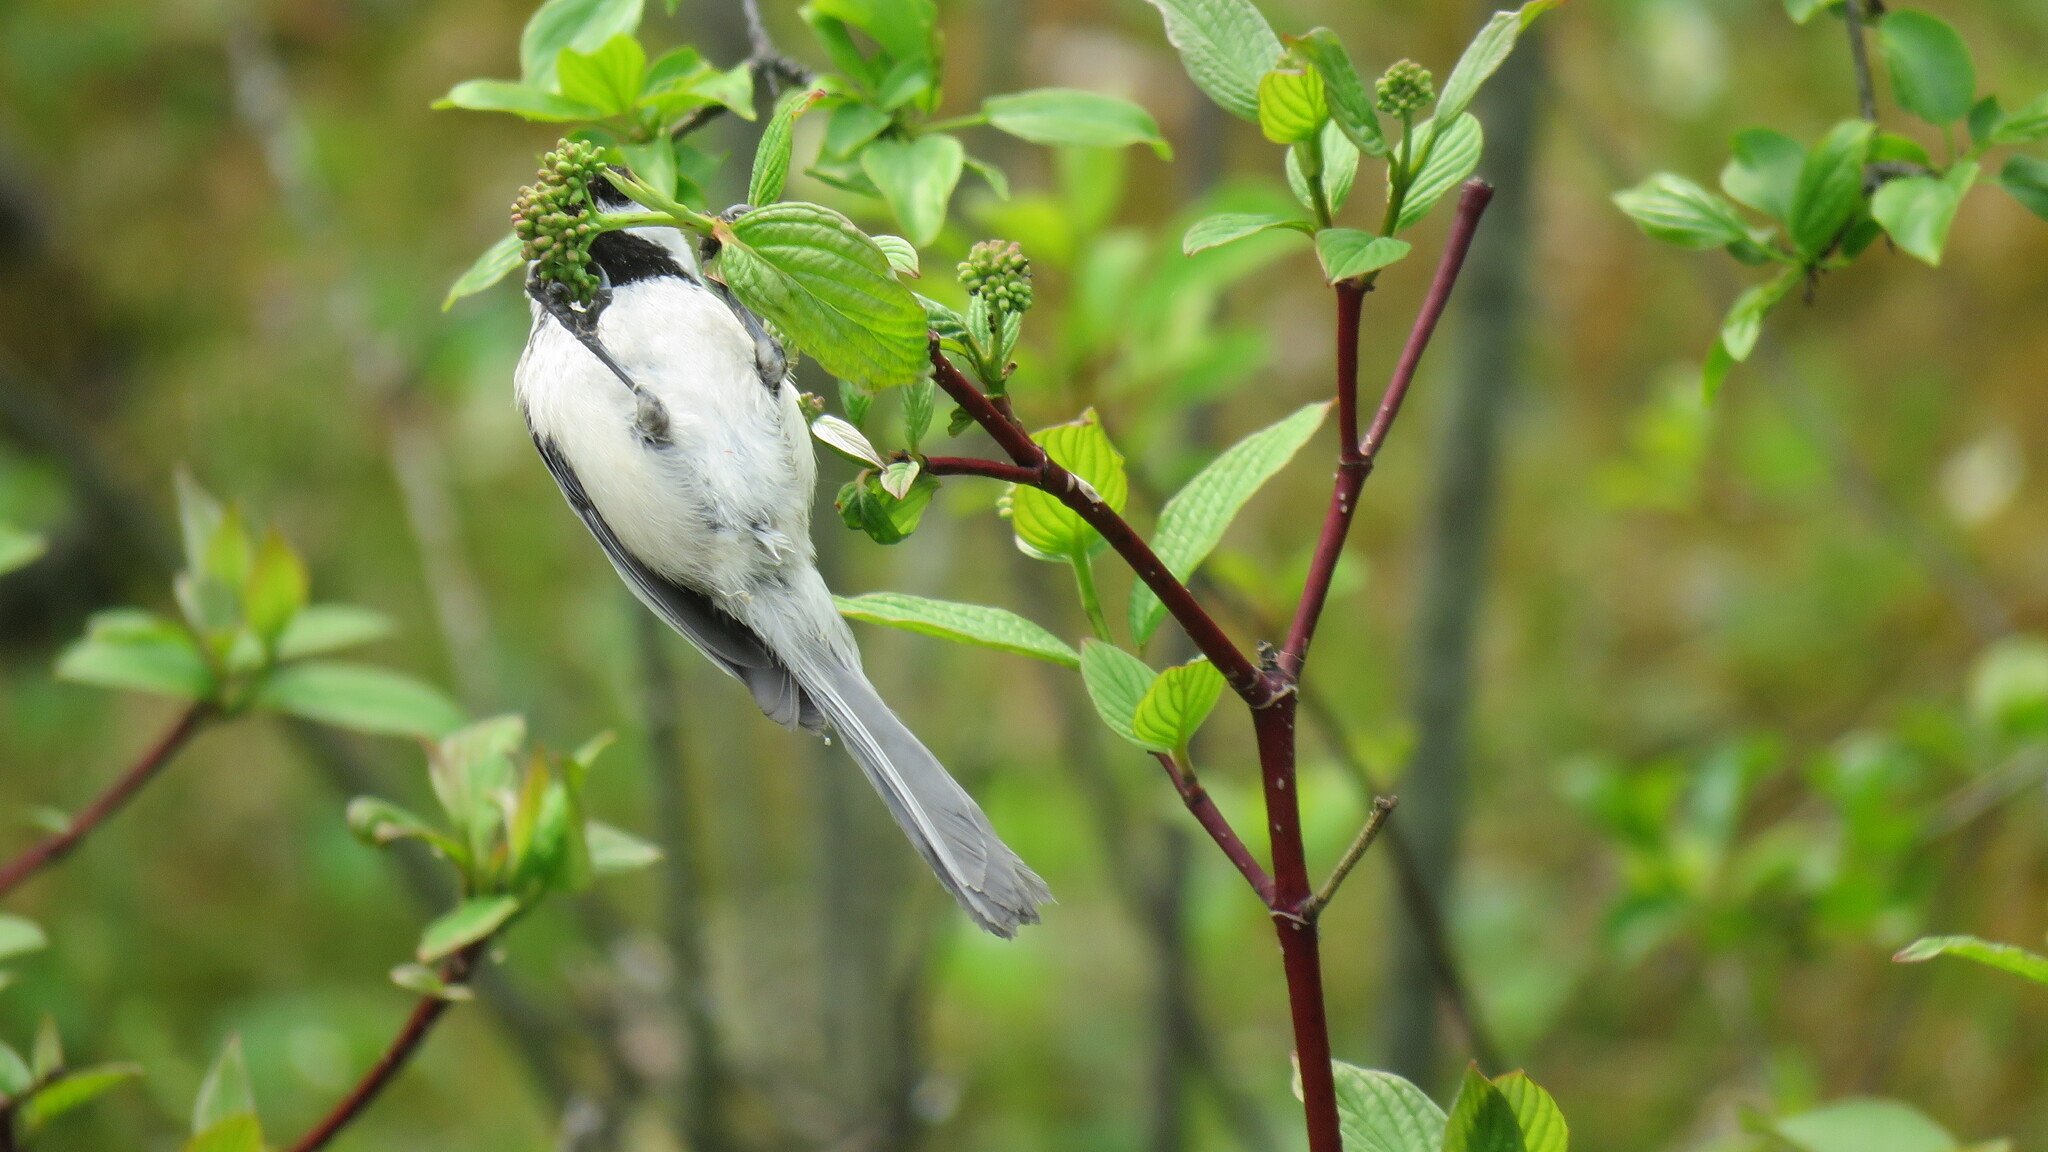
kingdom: Animalia
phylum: Chordata
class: Aves
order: Passeriformes
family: Paridae
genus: Poecile
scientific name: Poecile atricapillus
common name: Black-capped chickadee
